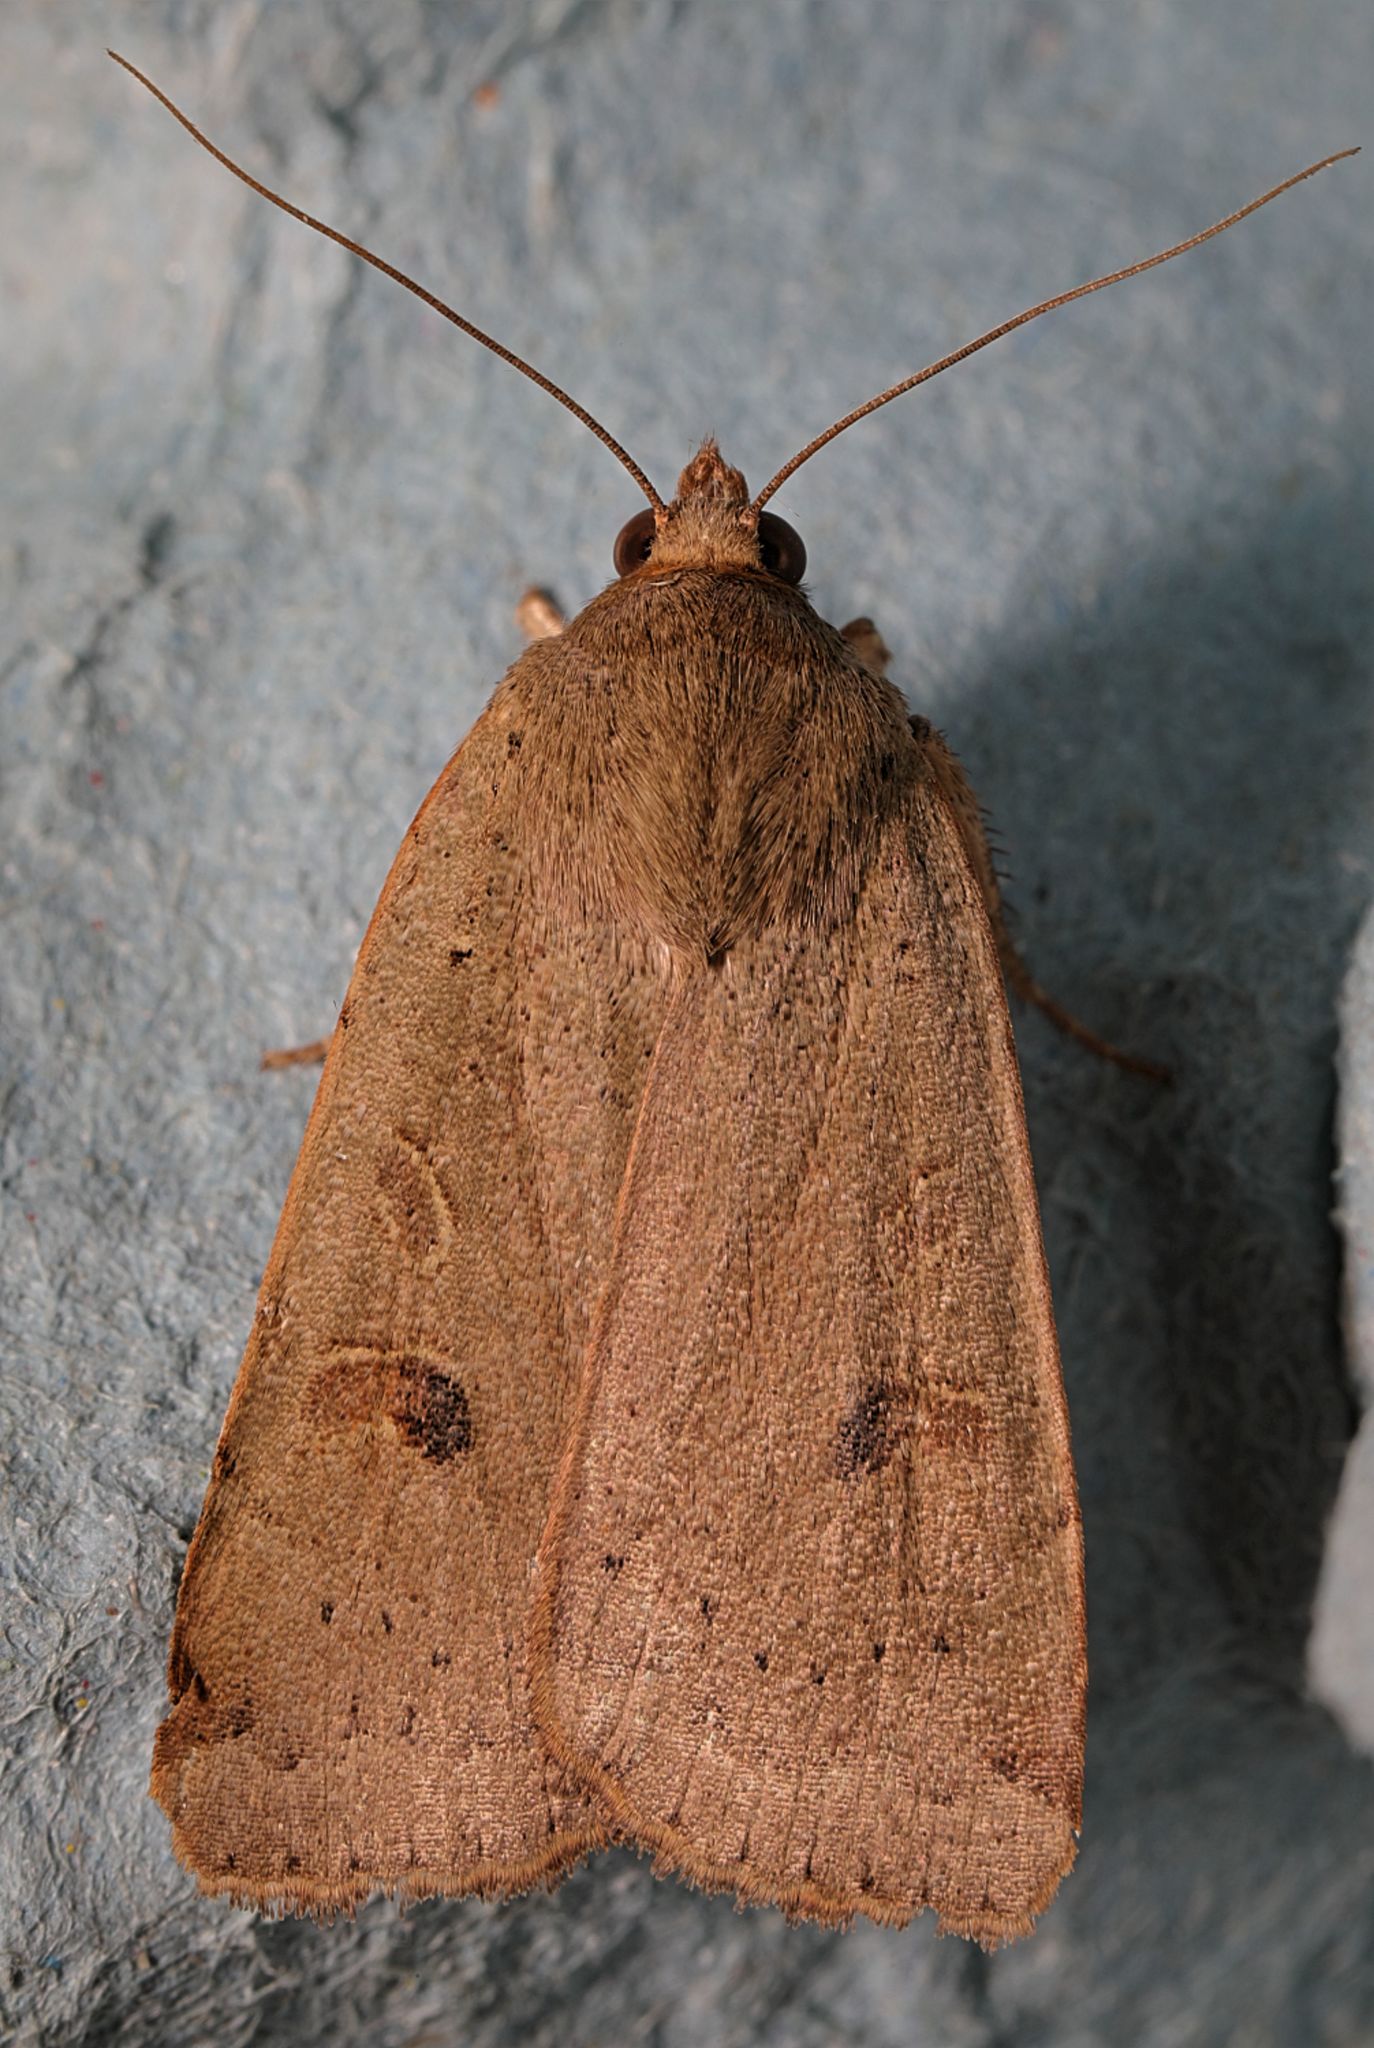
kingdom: Animalia
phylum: Arthropoda
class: Insecta
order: Lepidoptera
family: Noctuidae
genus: Noctua
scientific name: Noctua comes
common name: Lesser yellow underwing
